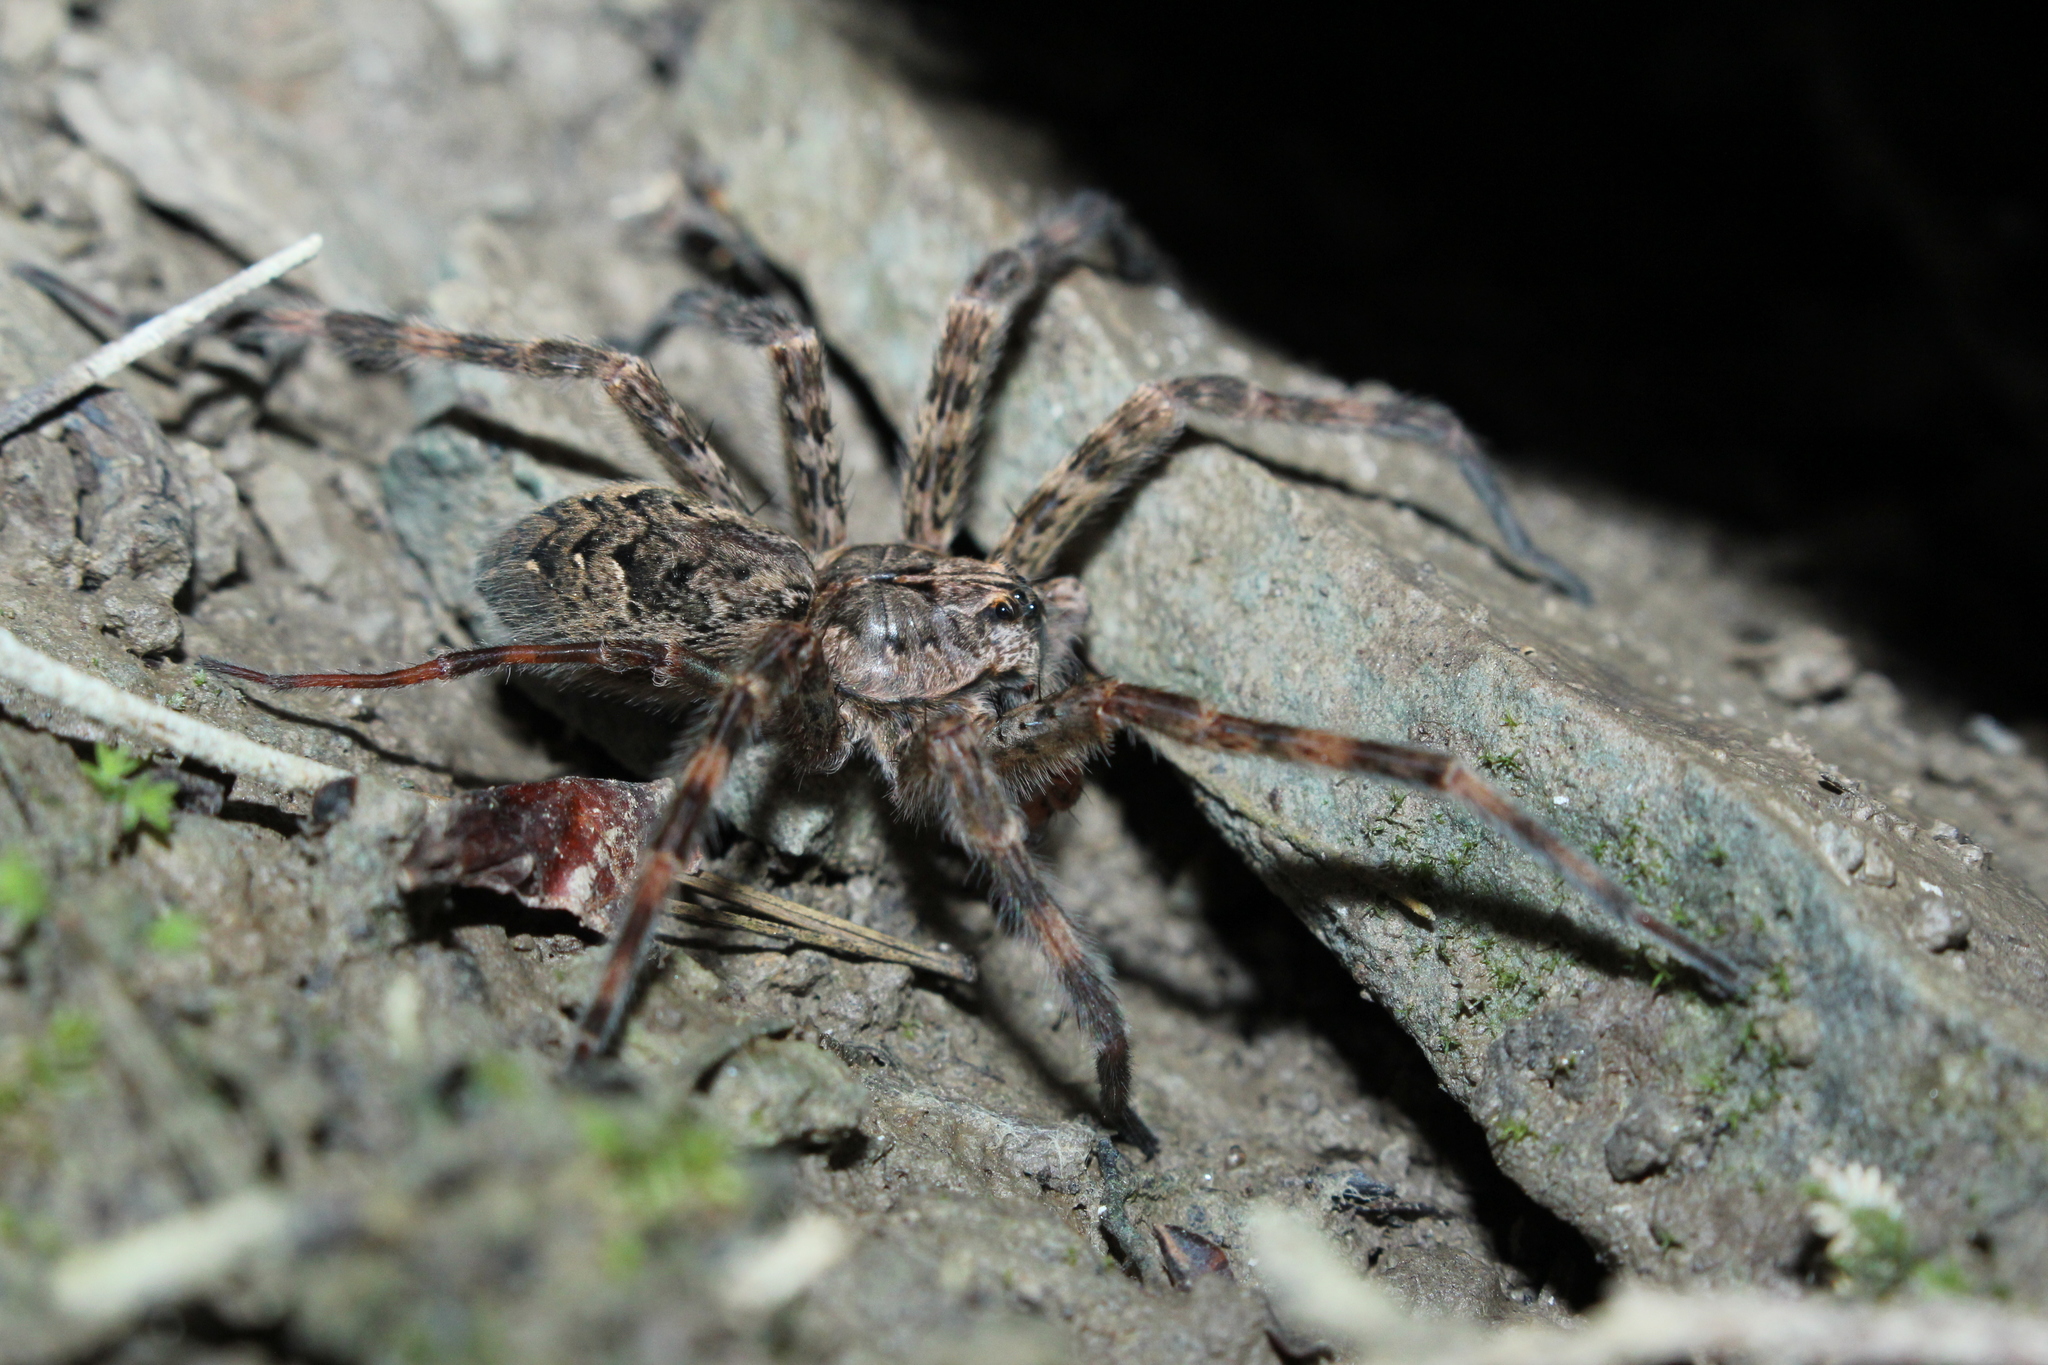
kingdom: Animalia
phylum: Arthropoda
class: Arachnida
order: Araneae
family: Pisauridae
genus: Dolomedes
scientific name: Dolomedes tenebrosus
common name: Dark fishing spider
